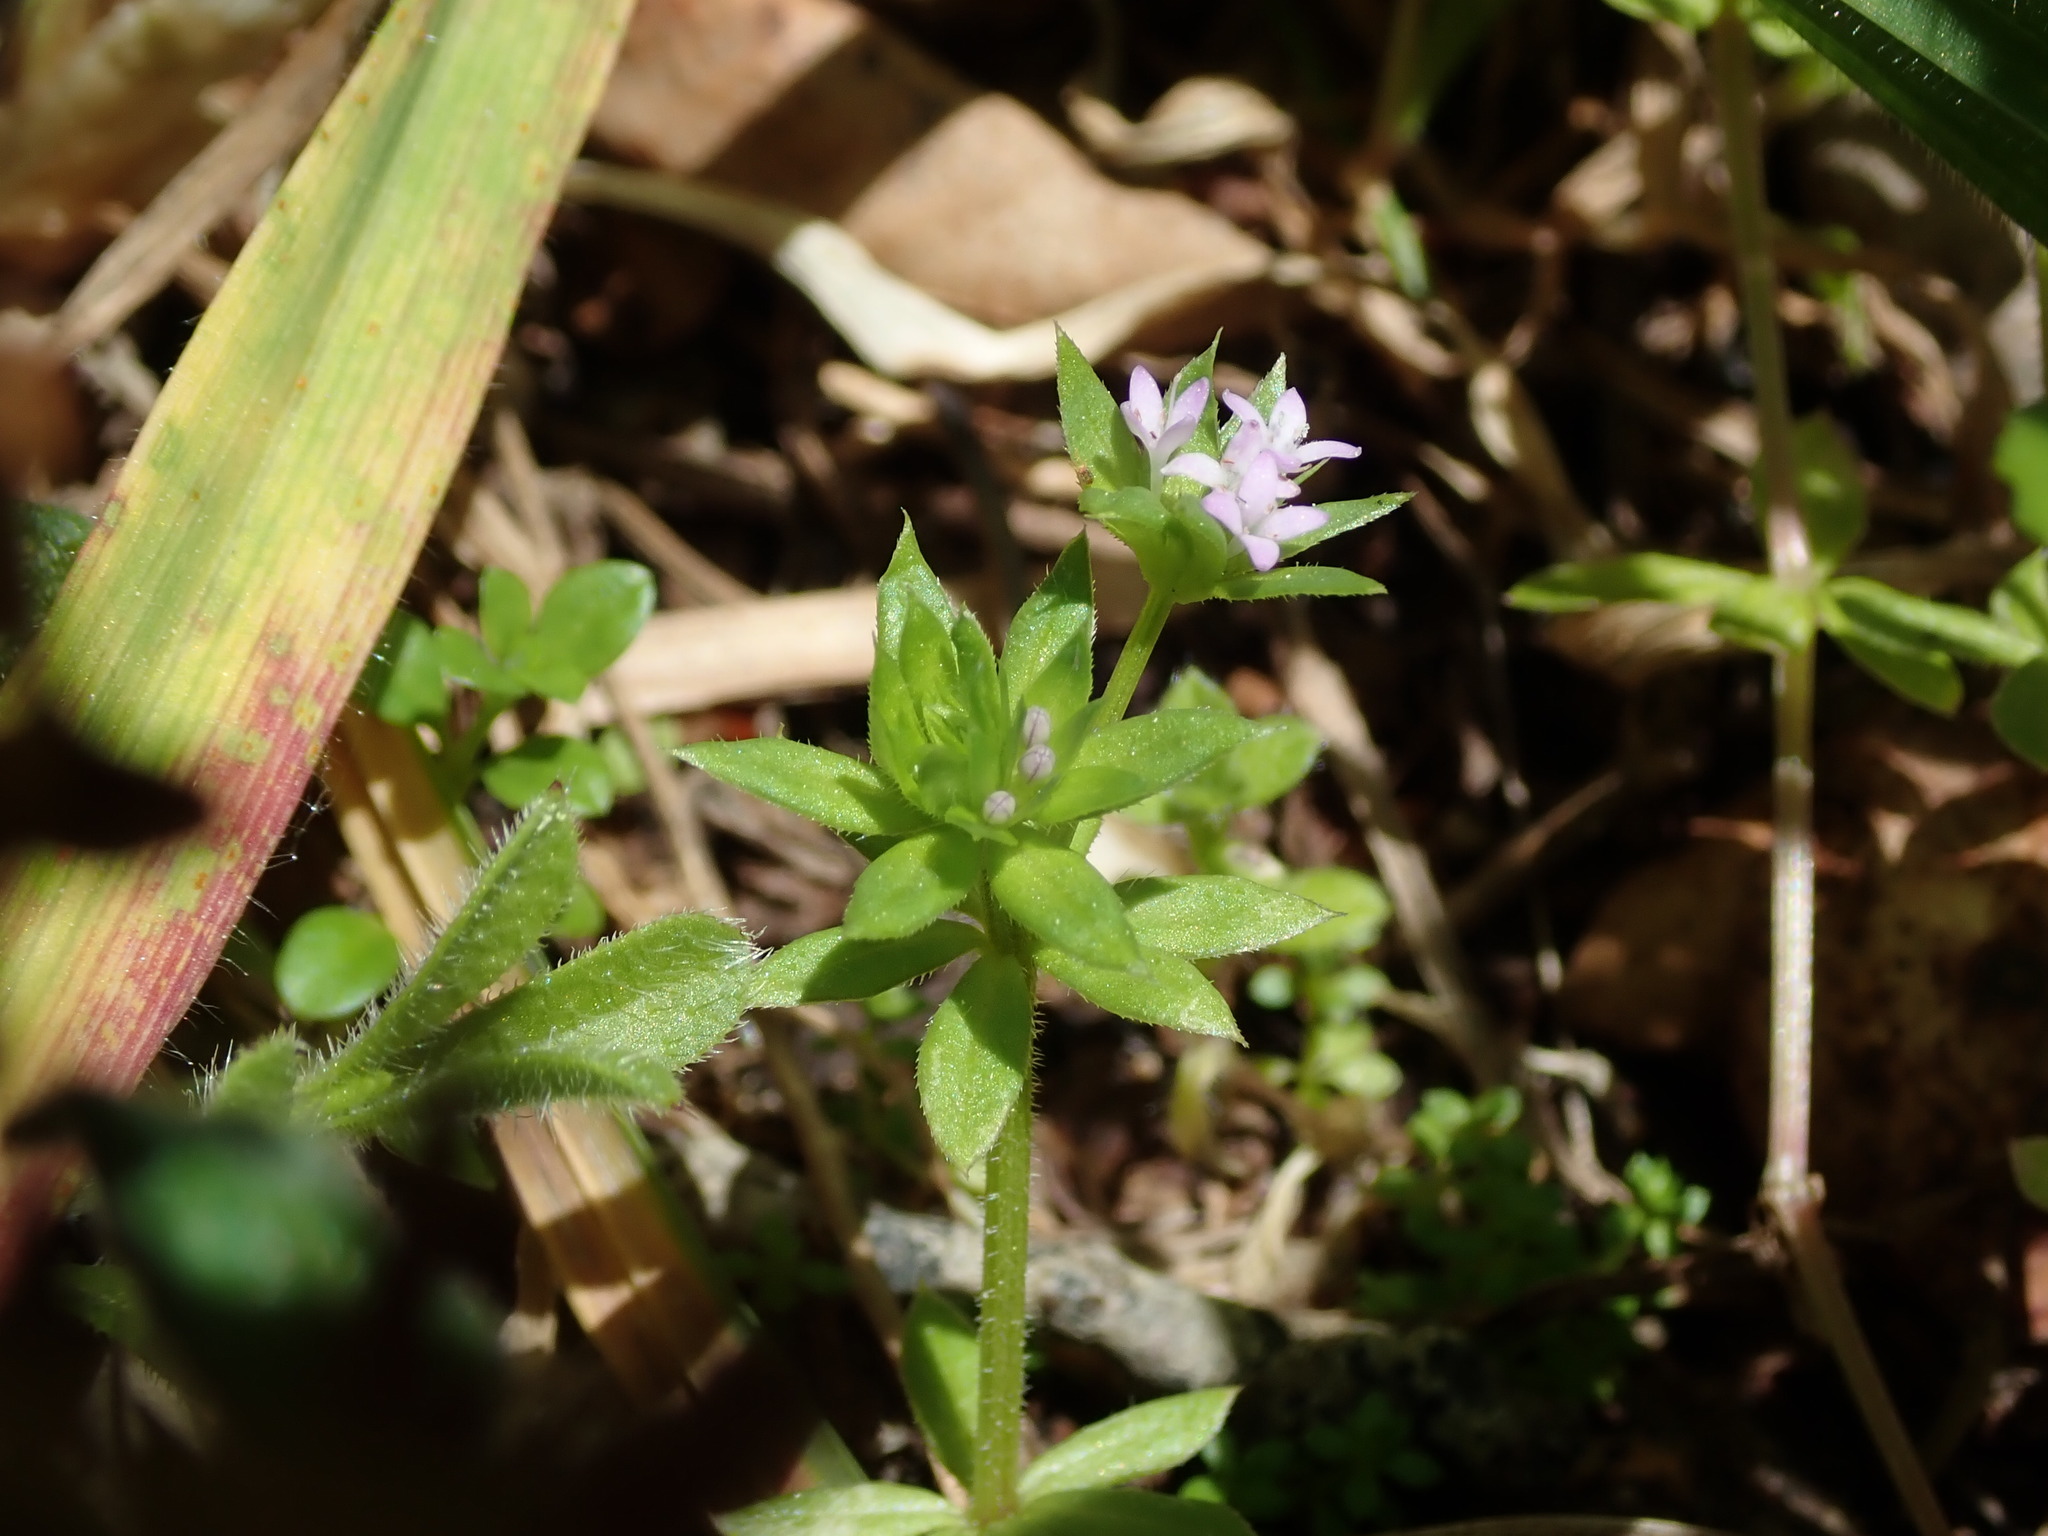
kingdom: Plantae
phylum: Tracheophyta
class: Magnoliopsida
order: Gentianales
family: Rubiaceae
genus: Sherardia
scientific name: Sherardia arvensis
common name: Field madder
